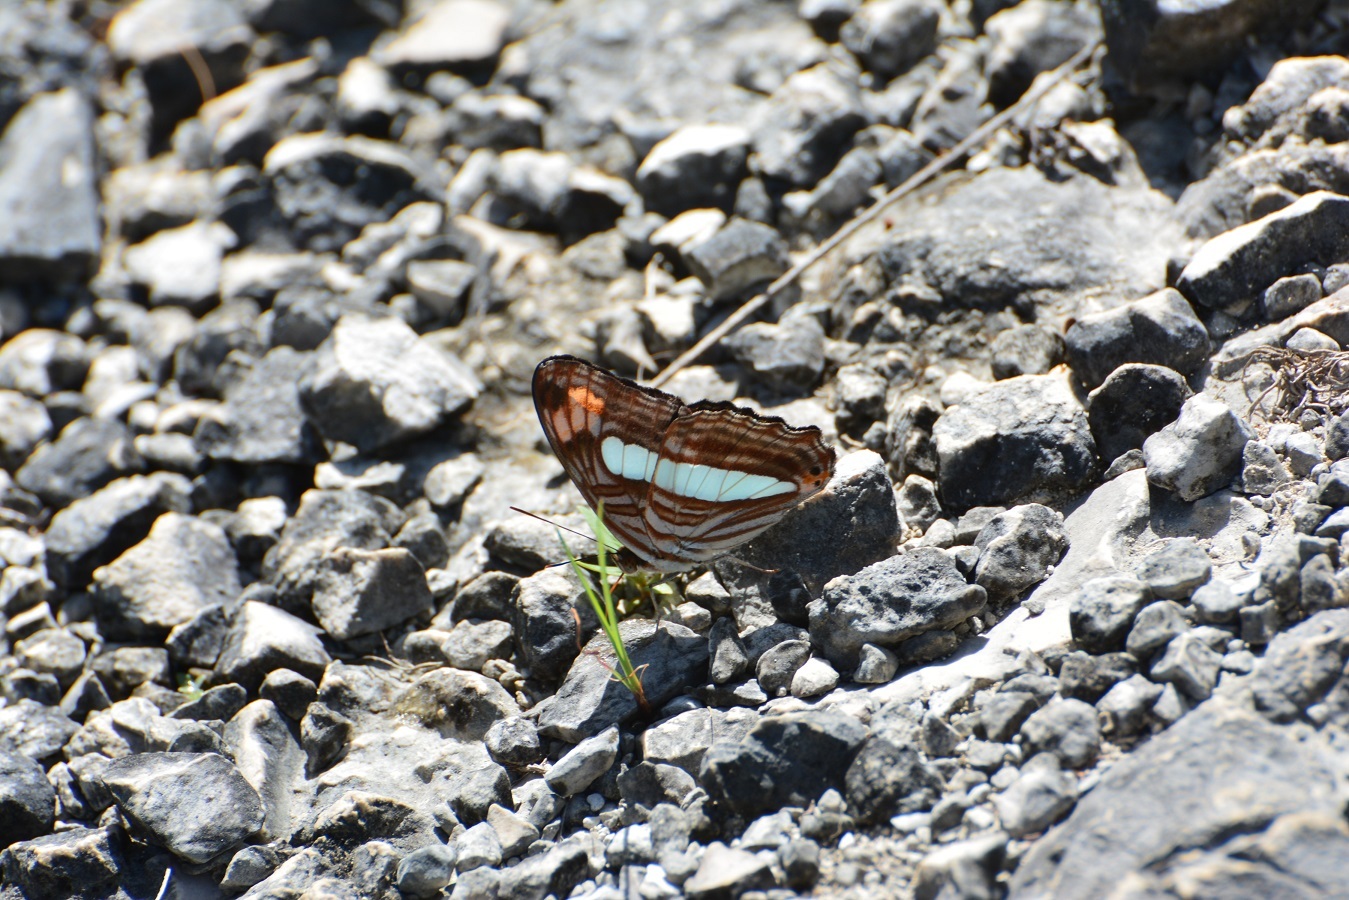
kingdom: Animalia
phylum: Arthropoda
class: Insecta
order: Lepidoptera
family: Nymphalidae
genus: Limenitis
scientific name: Limenitis iphiclus
